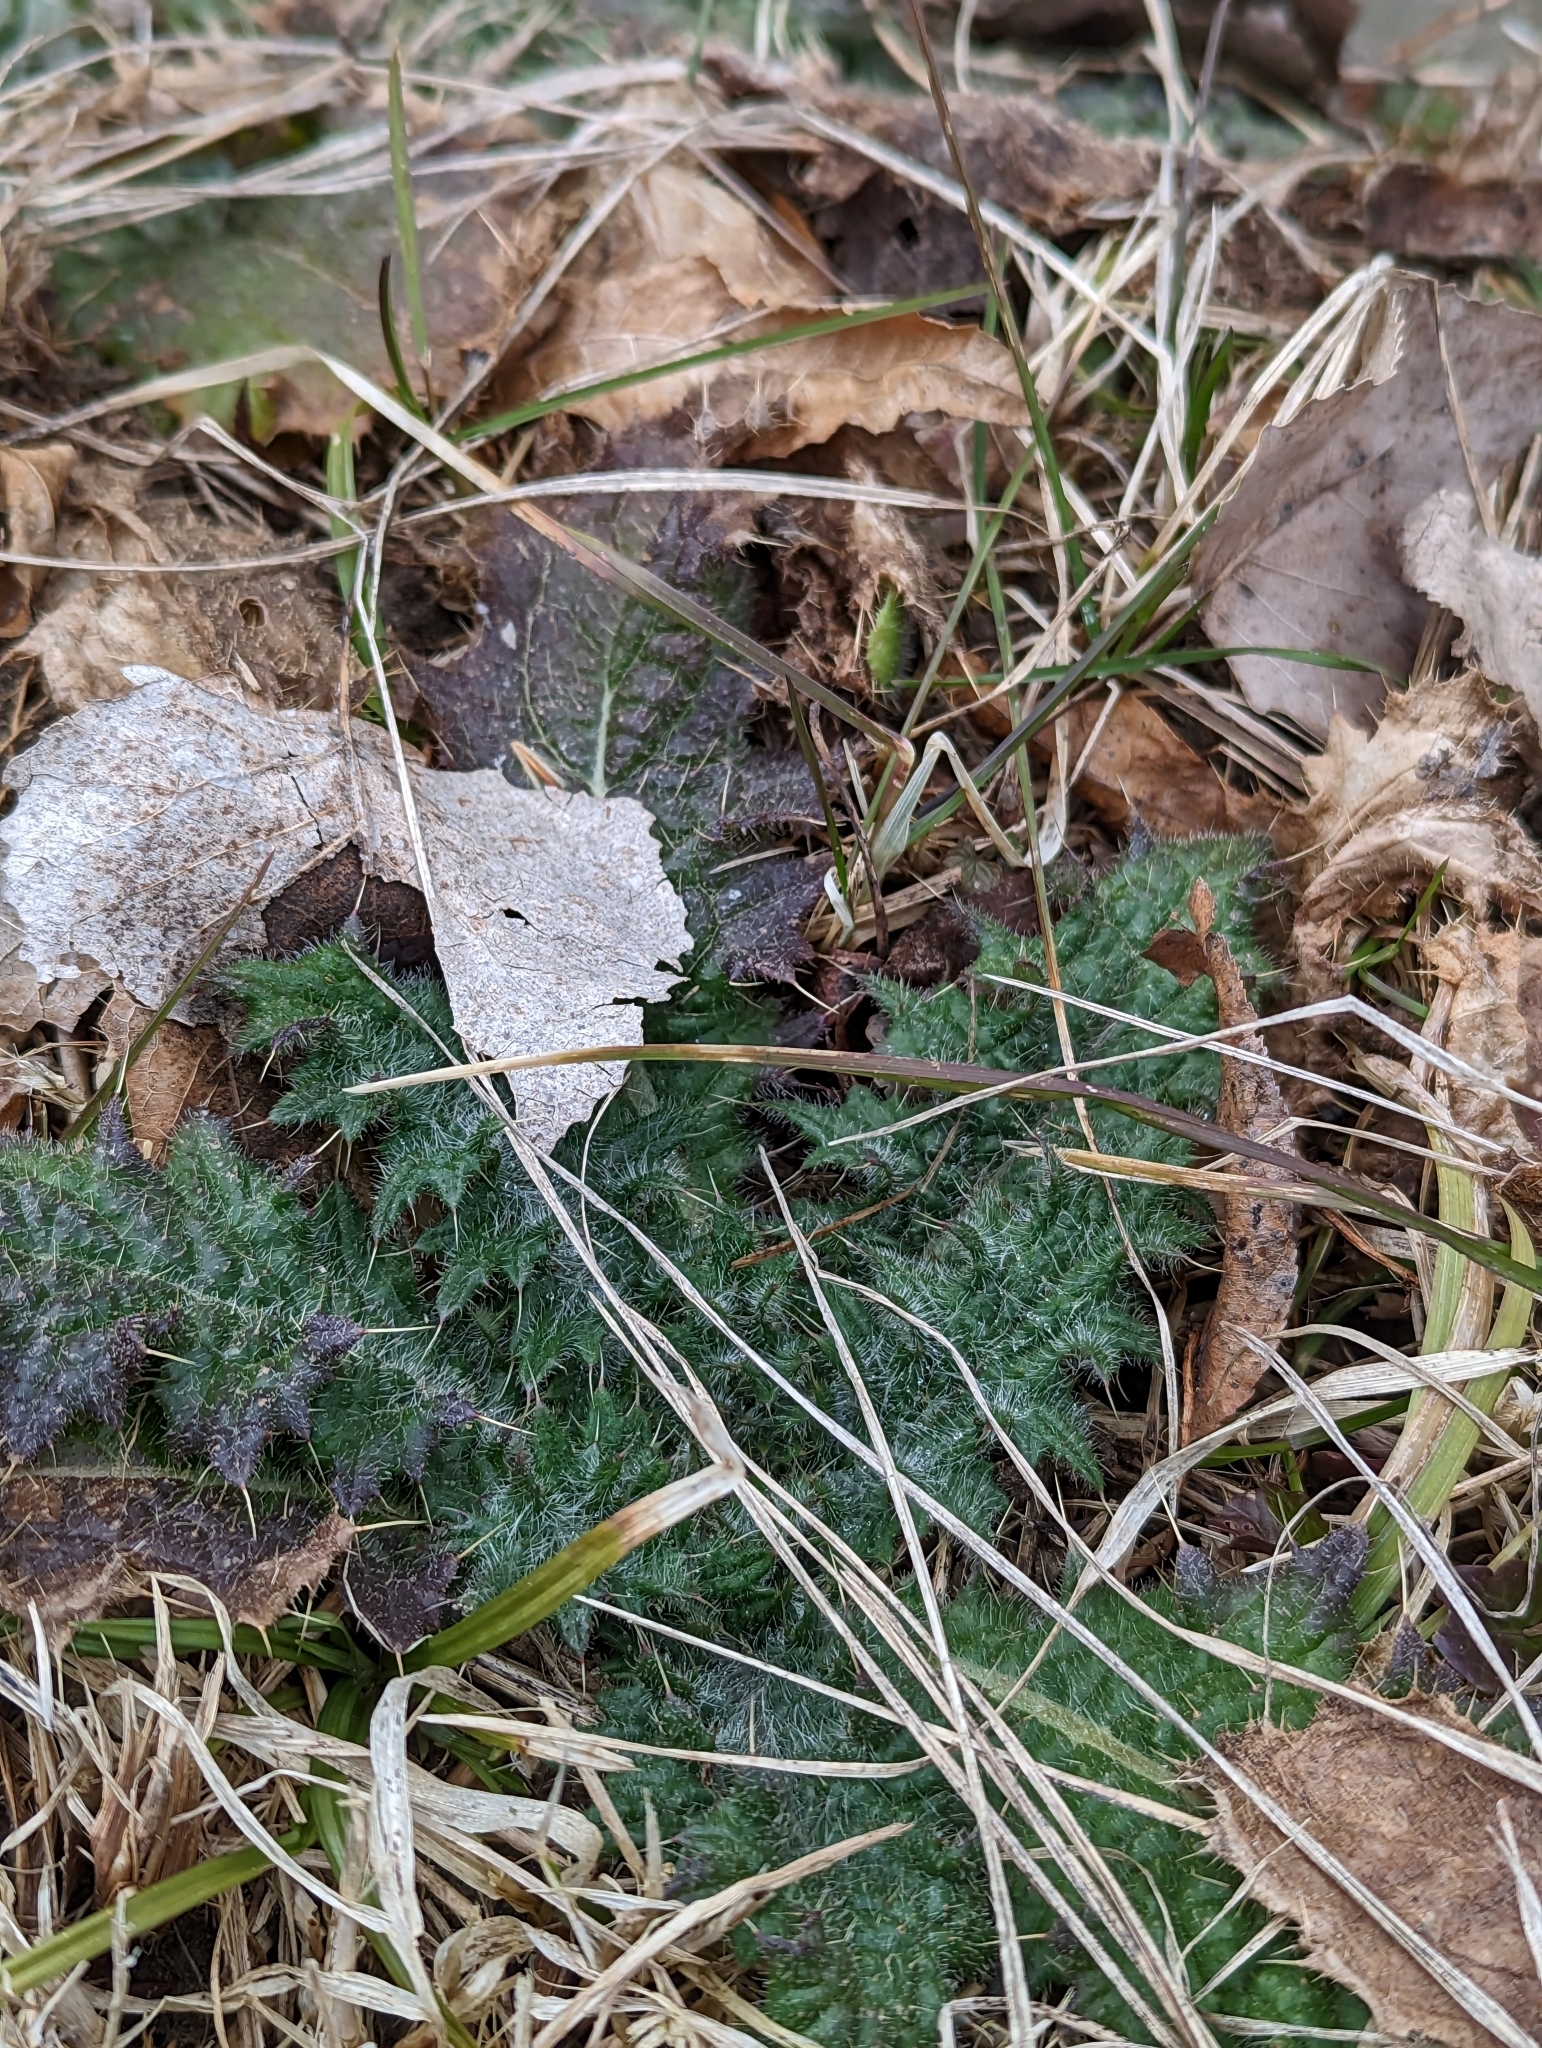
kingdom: Plantae
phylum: Tracheophyta
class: Magnoliopsida
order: Asterales
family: Asteraceae
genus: Cirsium
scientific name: Cirsium vulgare
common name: Bull thistle
